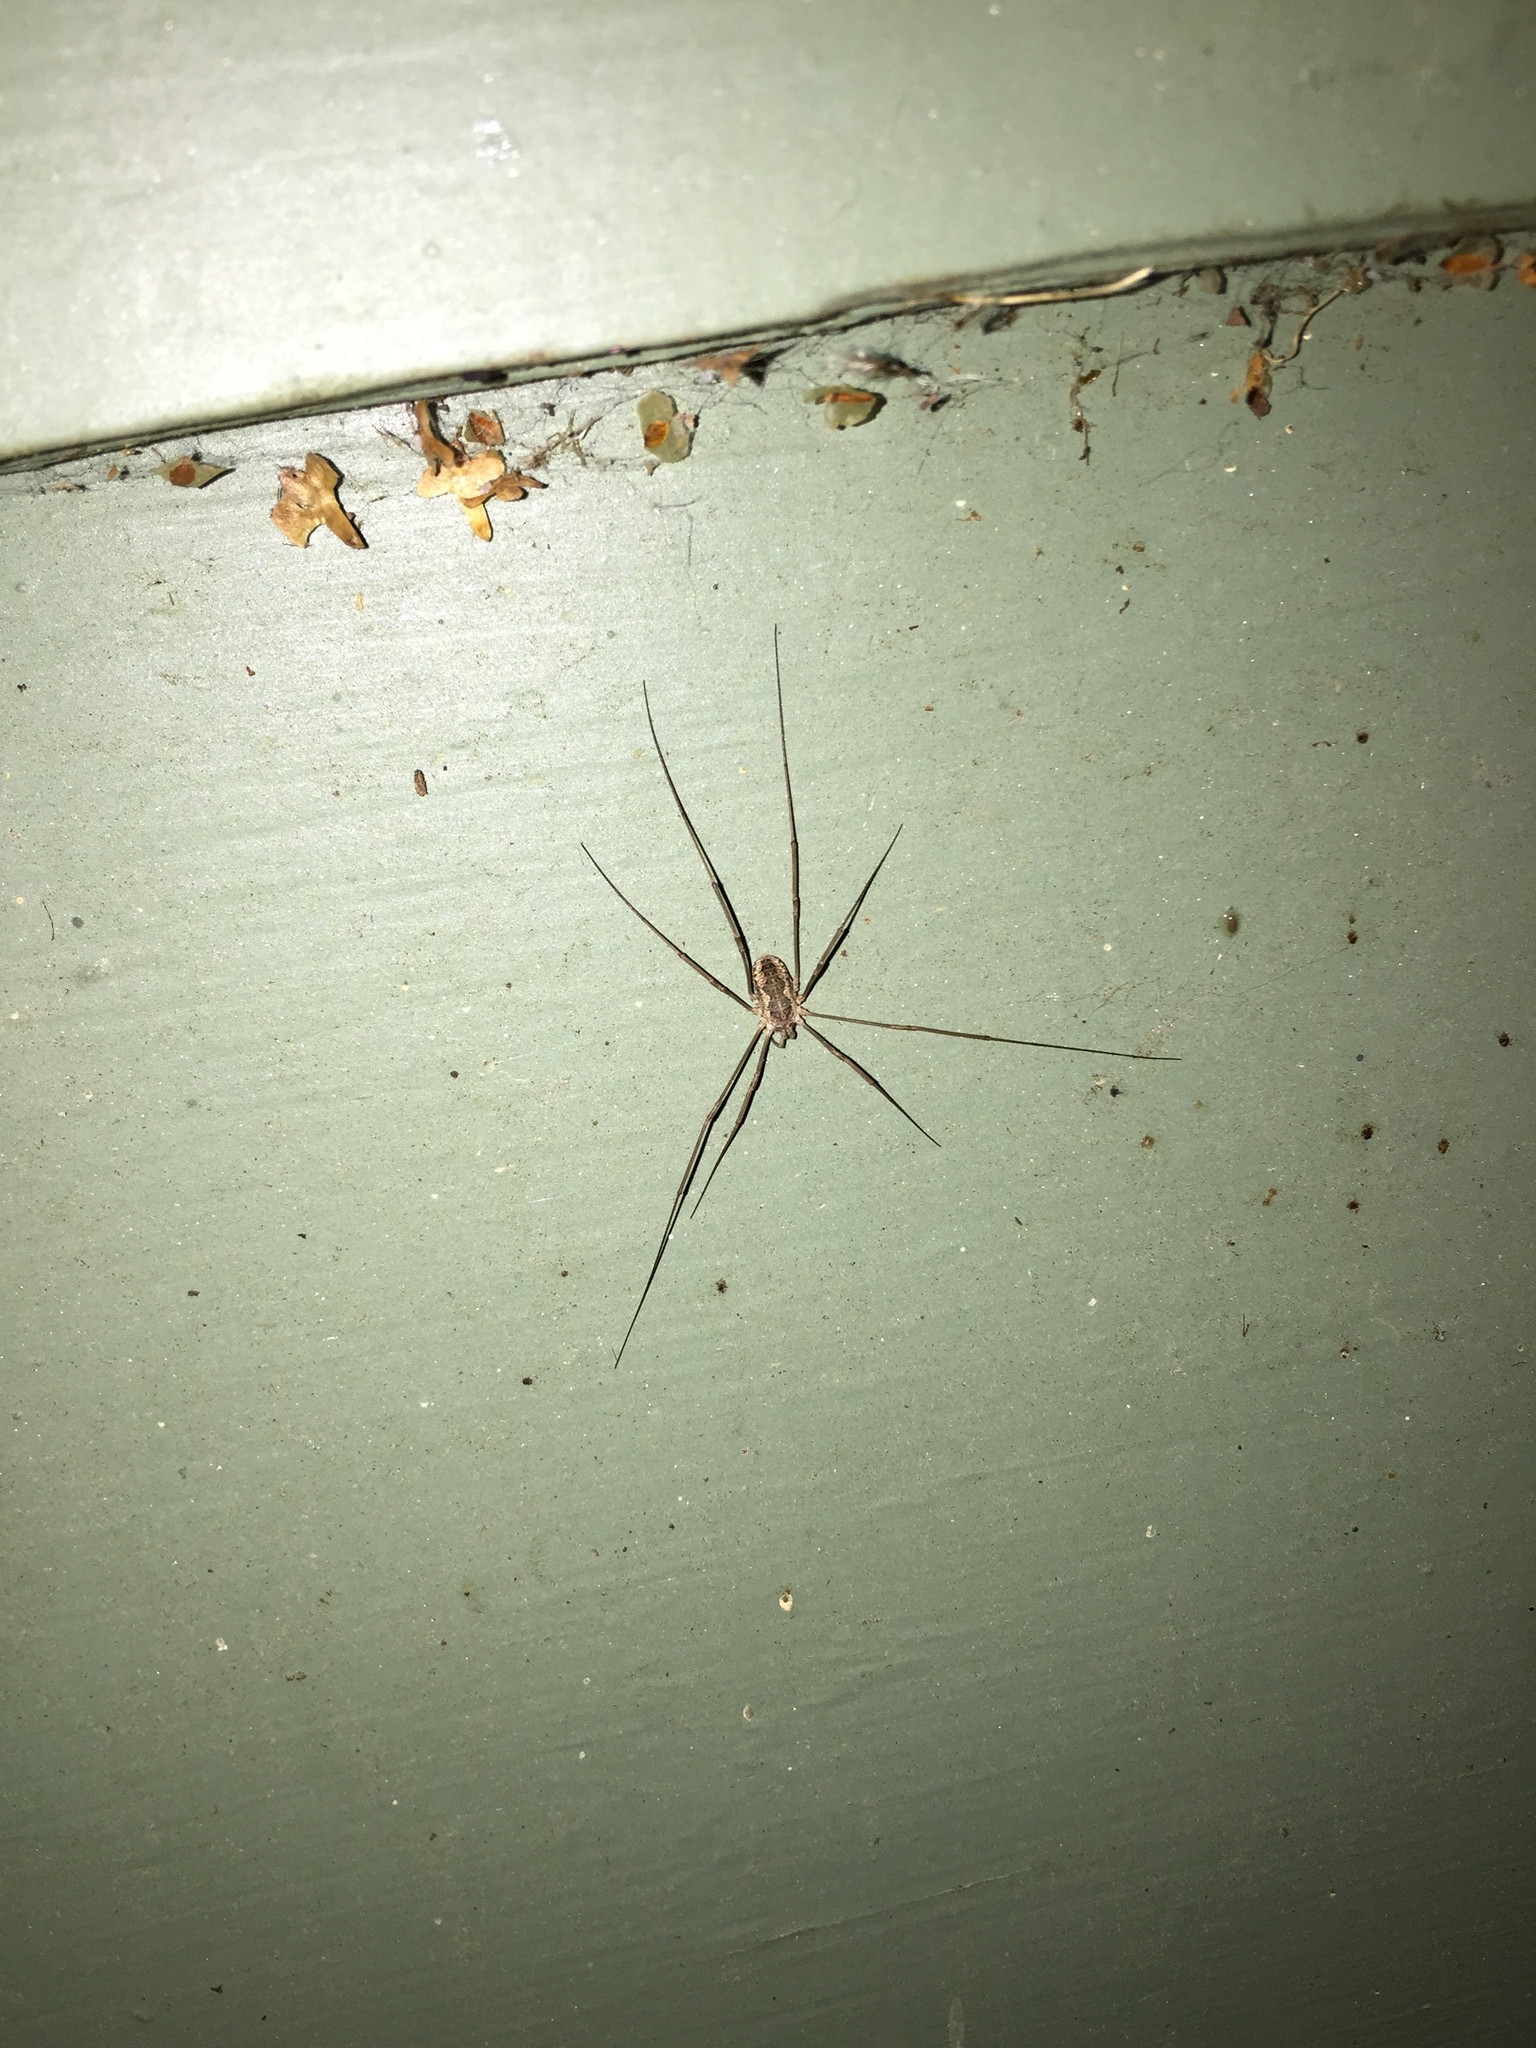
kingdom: Animalia
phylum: Arthropoda
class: Arachnida
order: Opiliones
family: Phalangiidae
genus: Phalangium
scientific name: Phalangium opilio
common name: Daddy longleg
